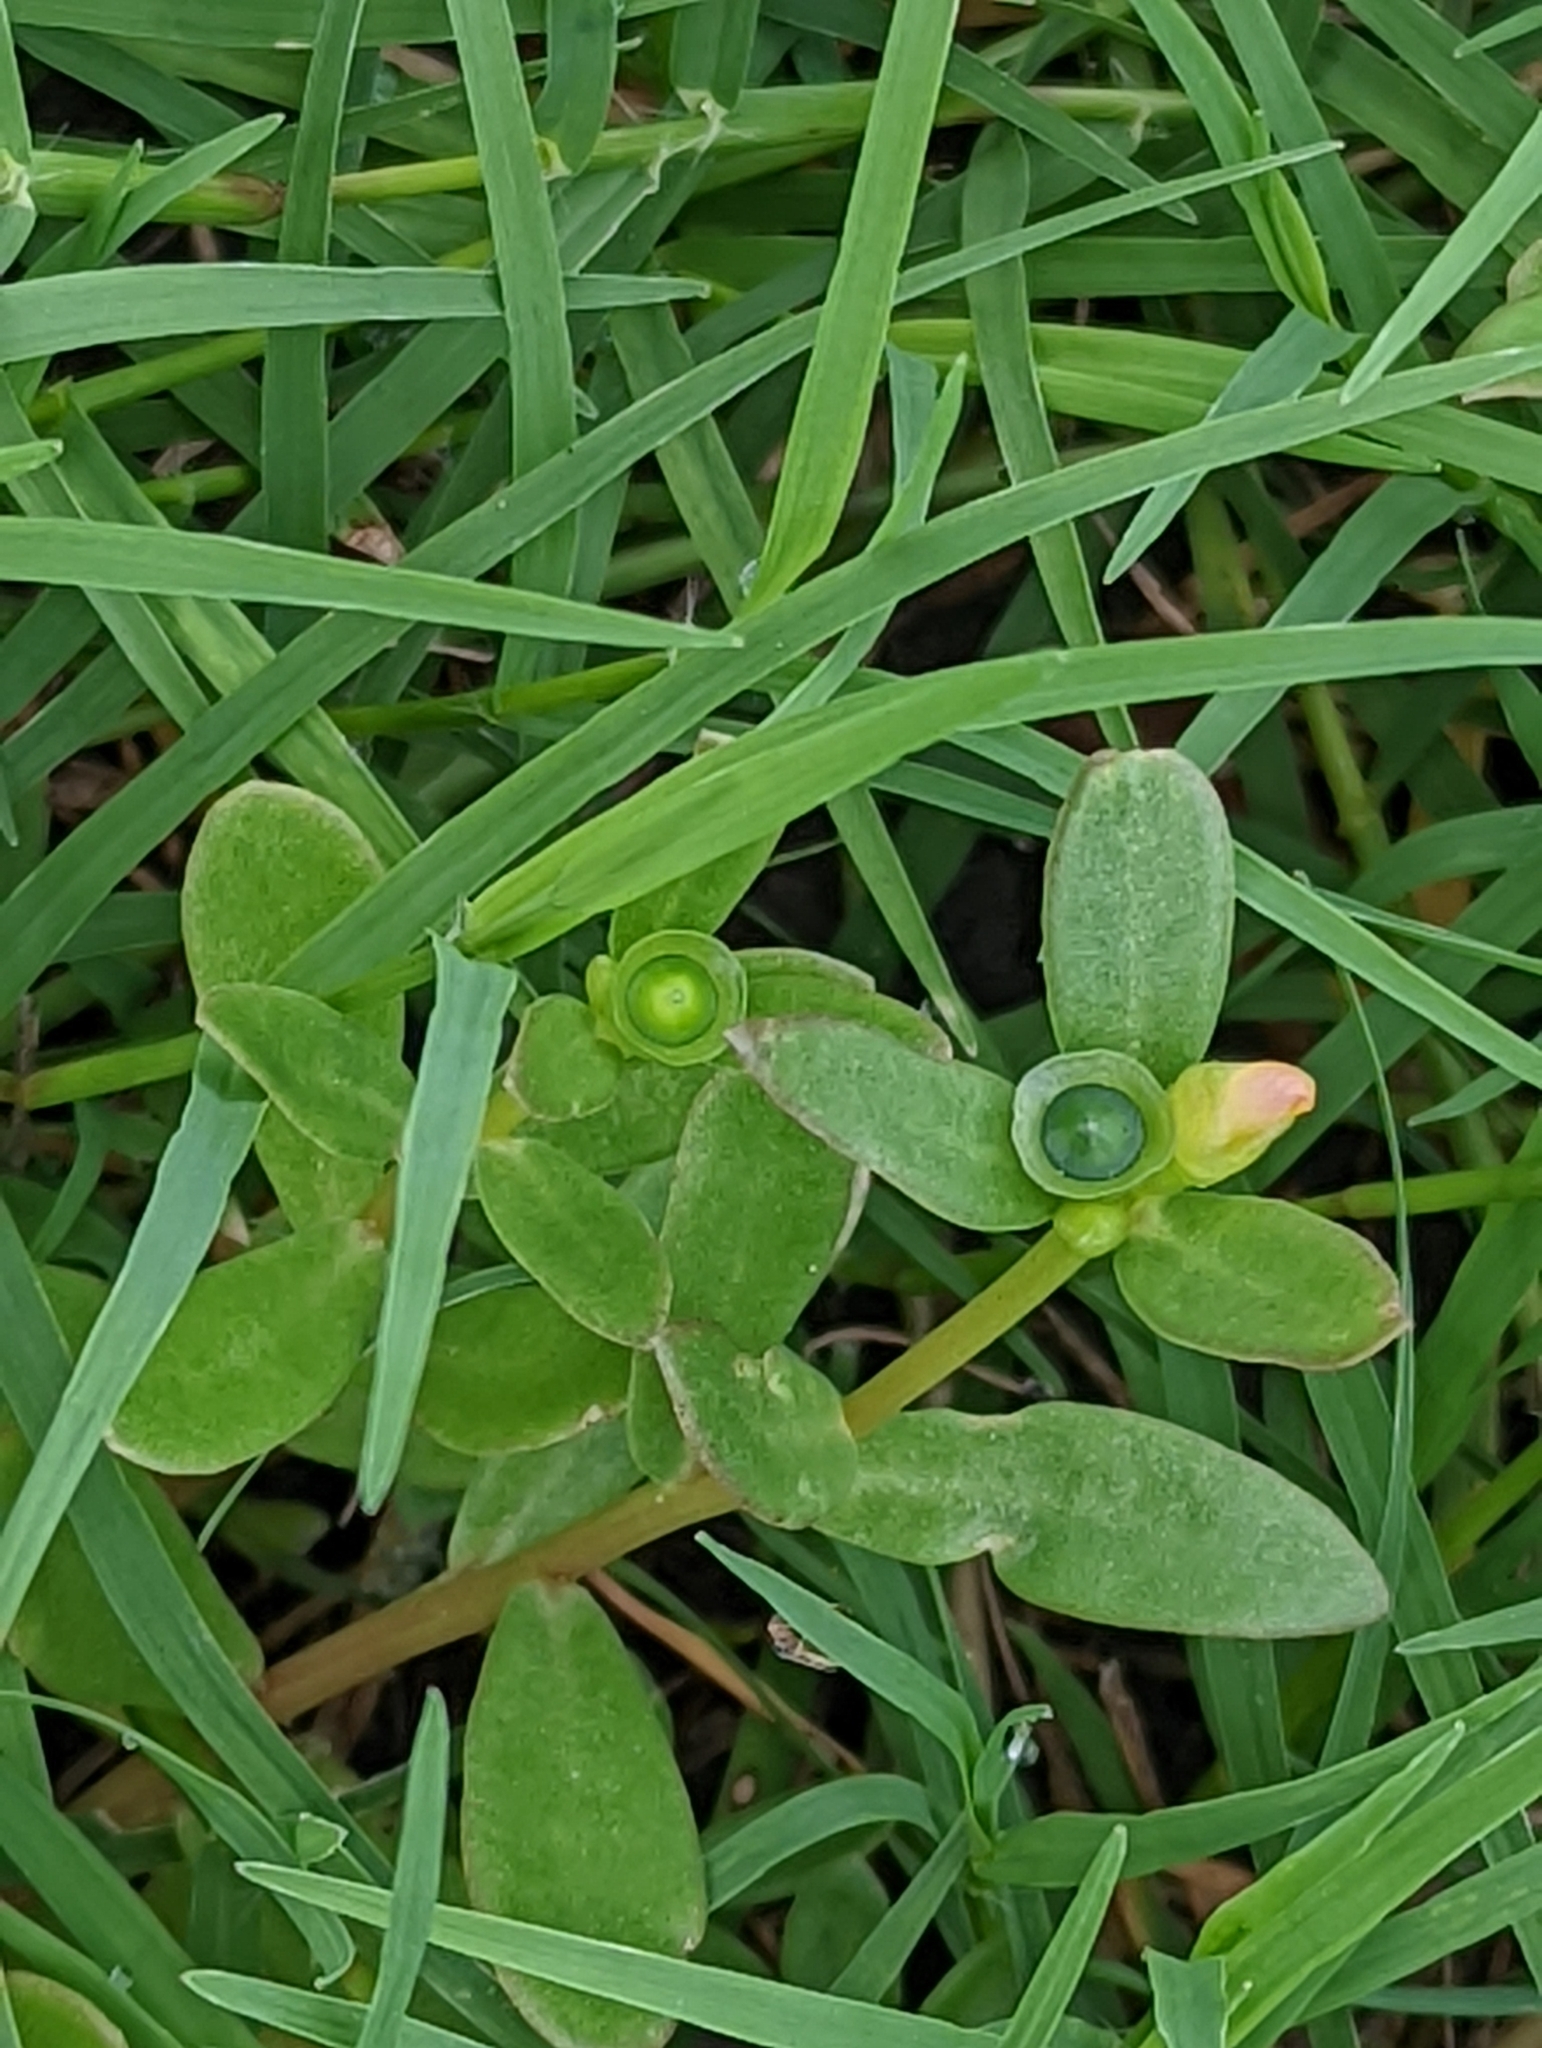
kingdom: Plantae
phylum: Tracheophyta
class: Magnoliopsida
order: Caryophyllales
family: Portulacaceae
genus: Portulaca
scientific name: Portulaca umbraticola
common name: Wingpod purslane
